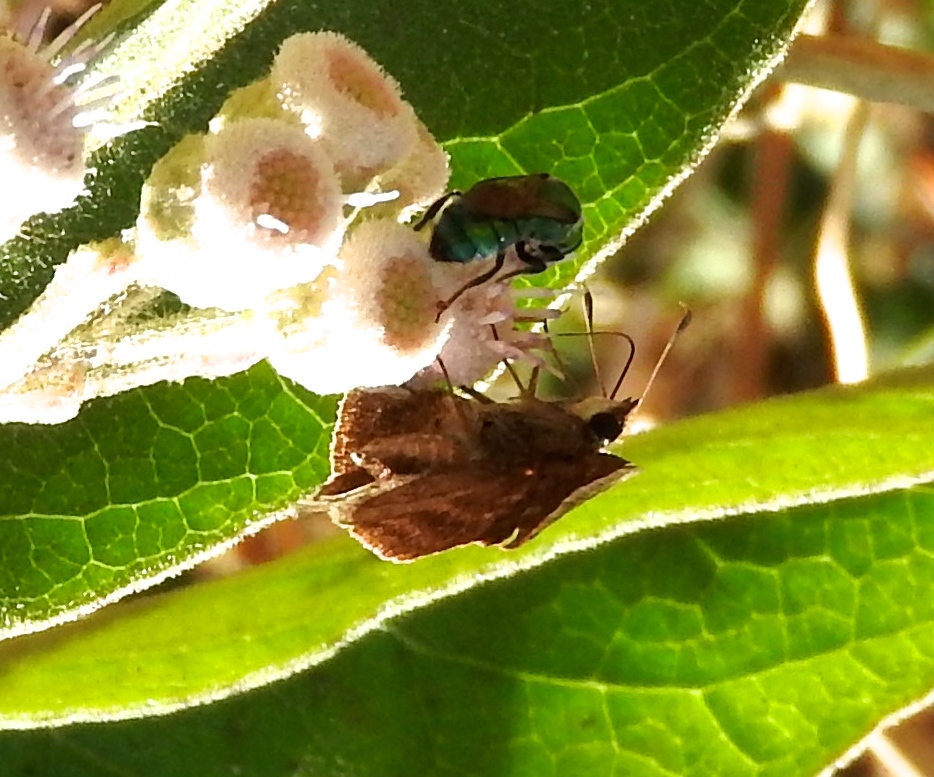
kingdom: Animalia
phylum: Arthropoda
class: Insecta
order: Hymenoptera
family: Halictidae
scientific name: Halictidae
